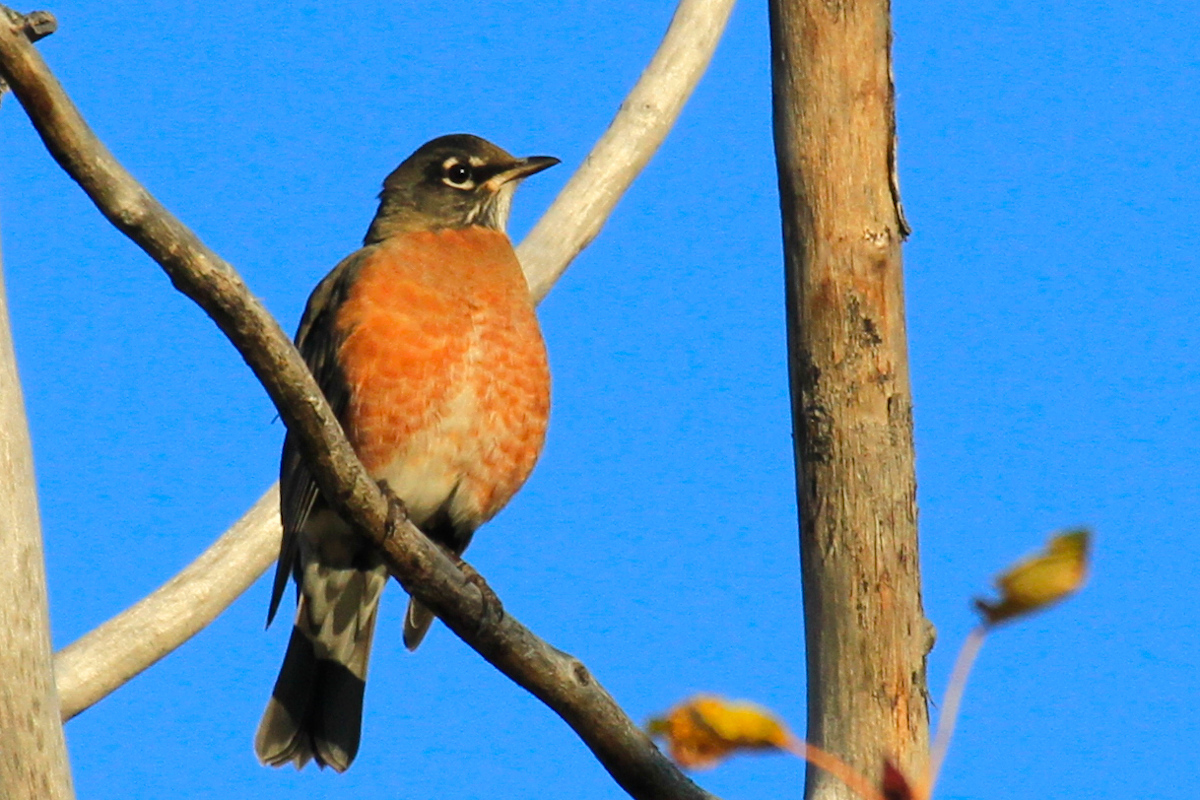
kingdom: Animalia
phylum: Chordata
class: Aves
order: Passeriformes
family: Turdidae
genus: Turdus
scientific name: Turdus migratorius
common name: American robin
